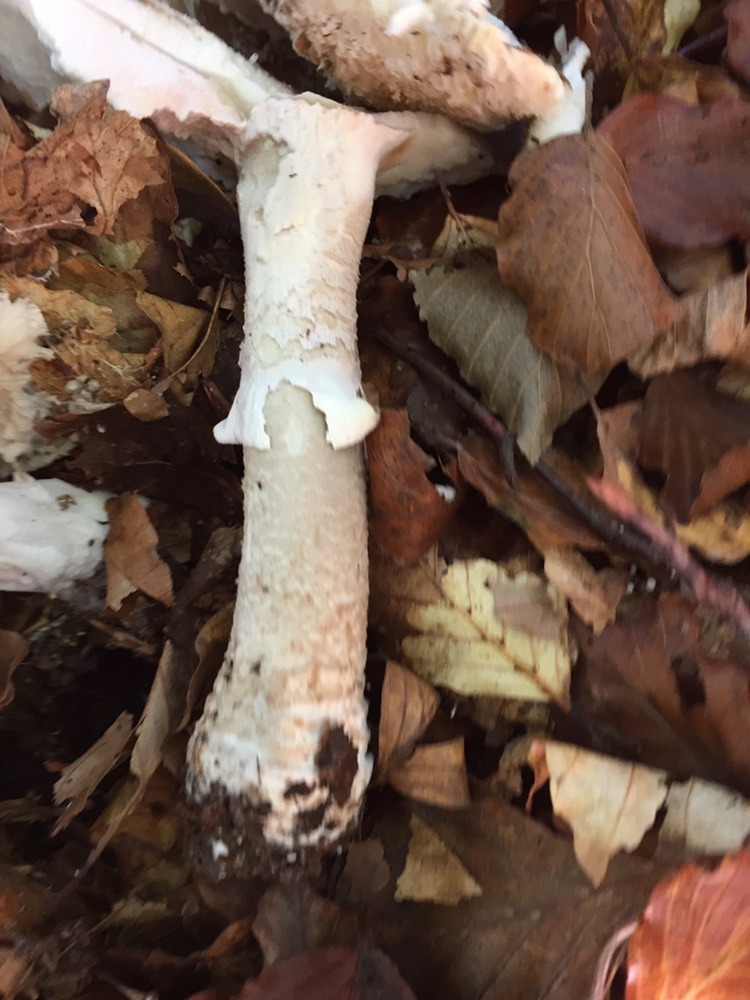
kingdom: Fungi
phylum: Basidiomycota
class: Agaricomycetes
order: Agaricales
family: Amanitaceae
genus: Amanita
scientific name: Amanita rubescens
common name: Blusher
